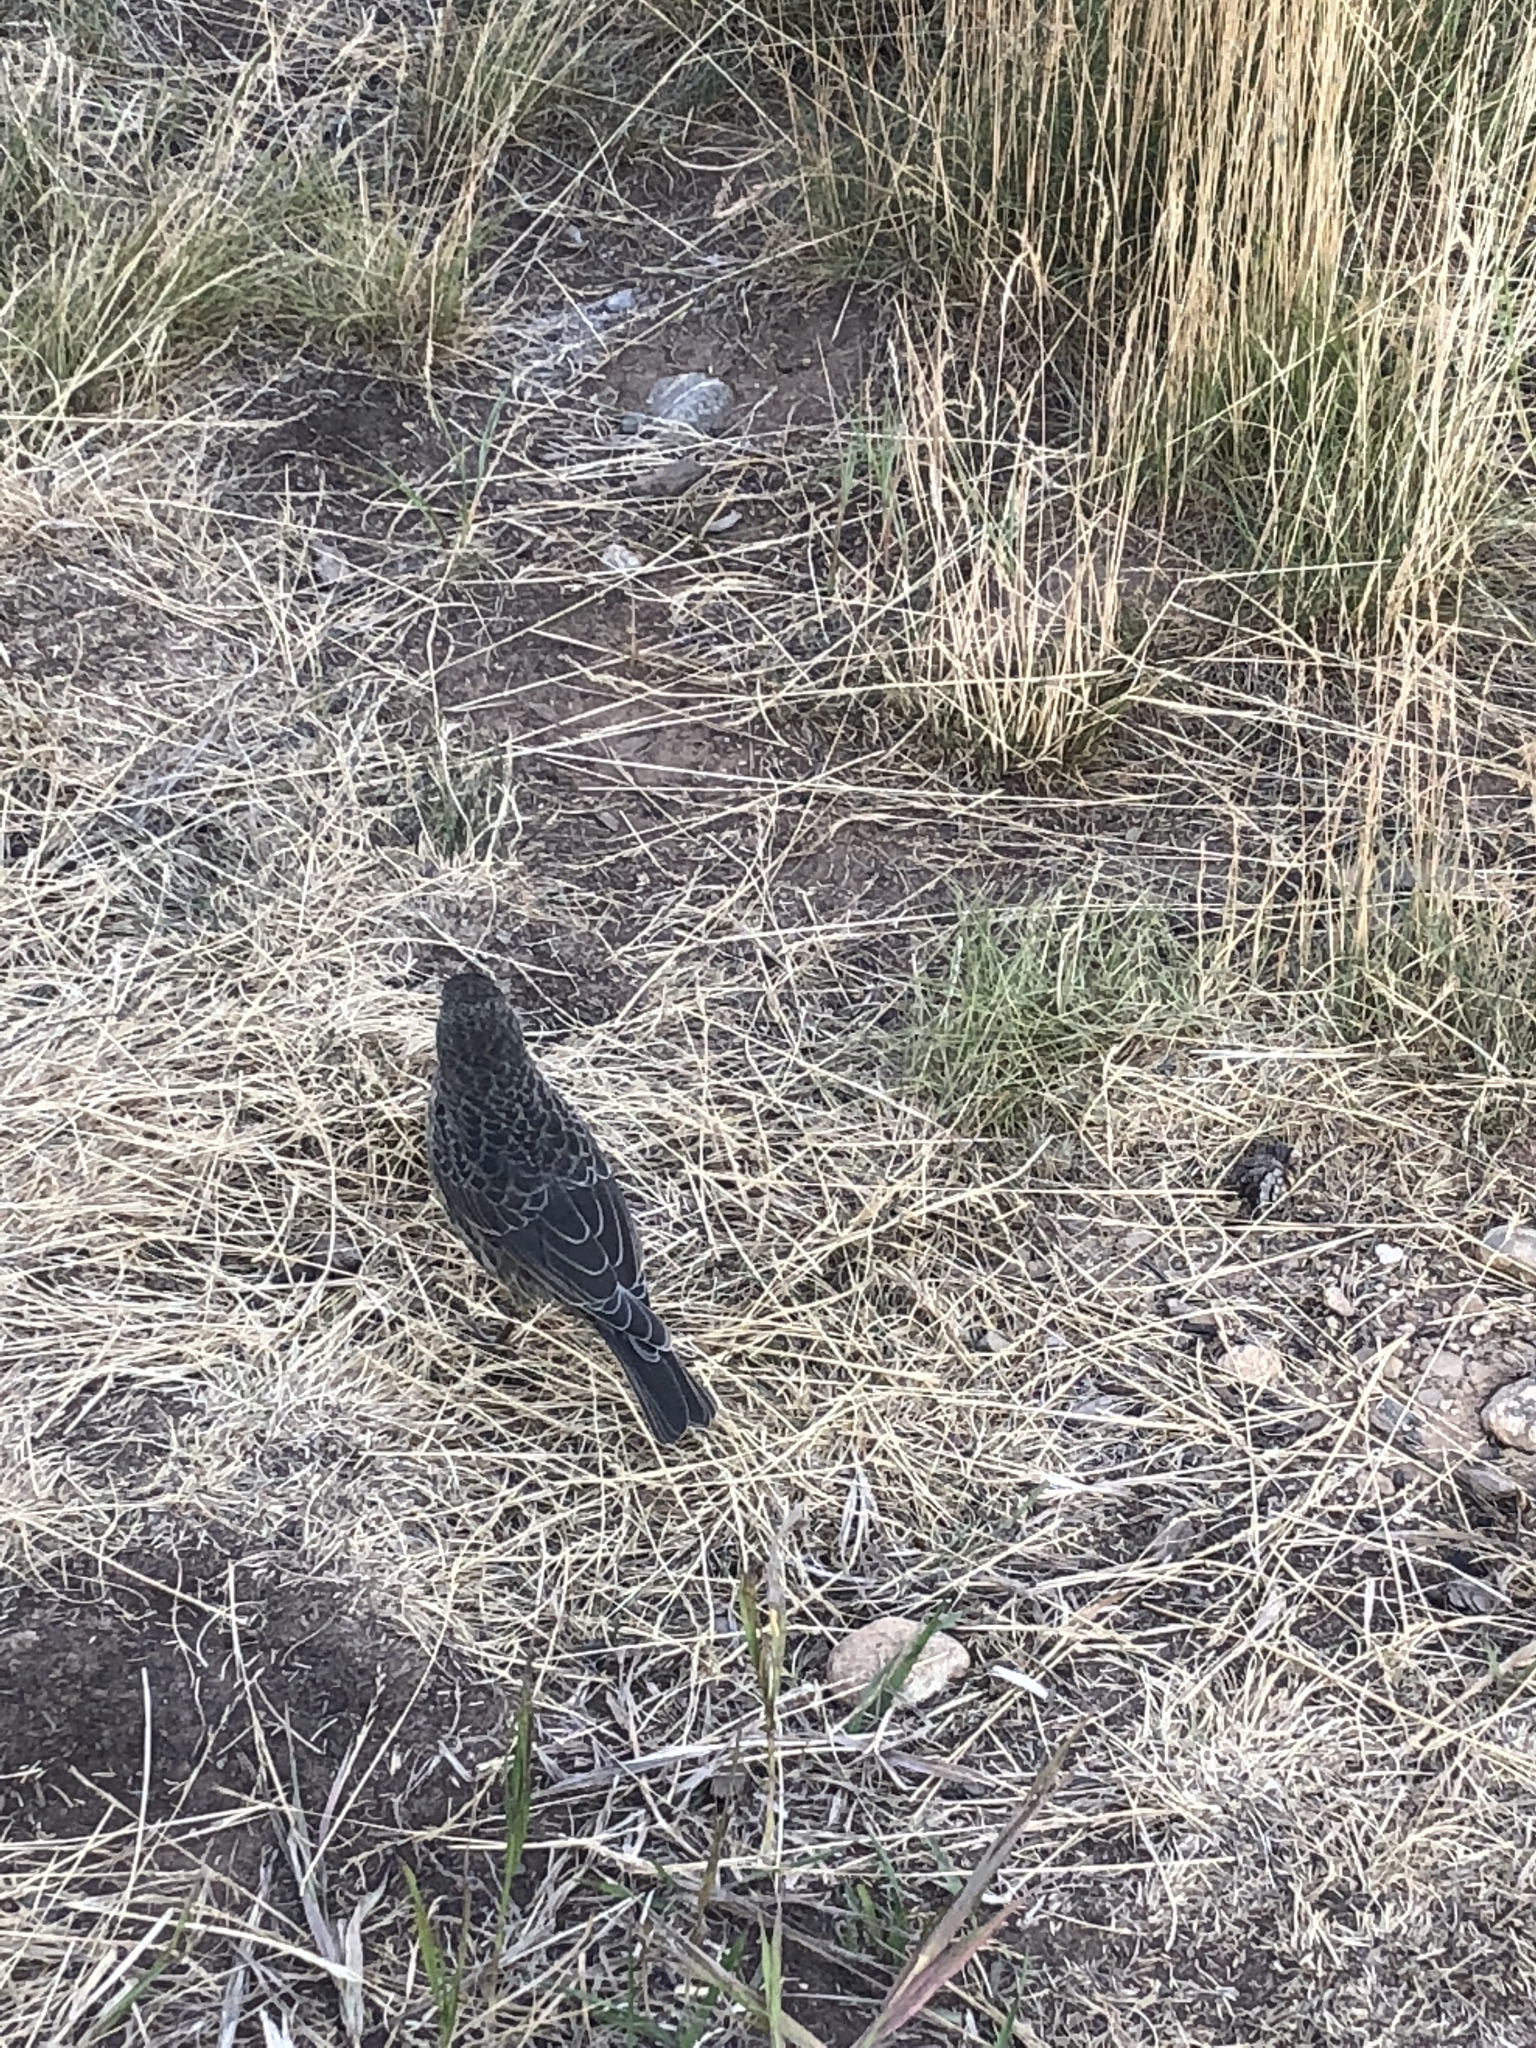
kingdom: Animalia
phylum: Chordata
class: Aves
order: Passeriformes
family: Icteridae
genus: Molothrus
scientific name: Molothrus ater
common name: Brown-headed cowbird
